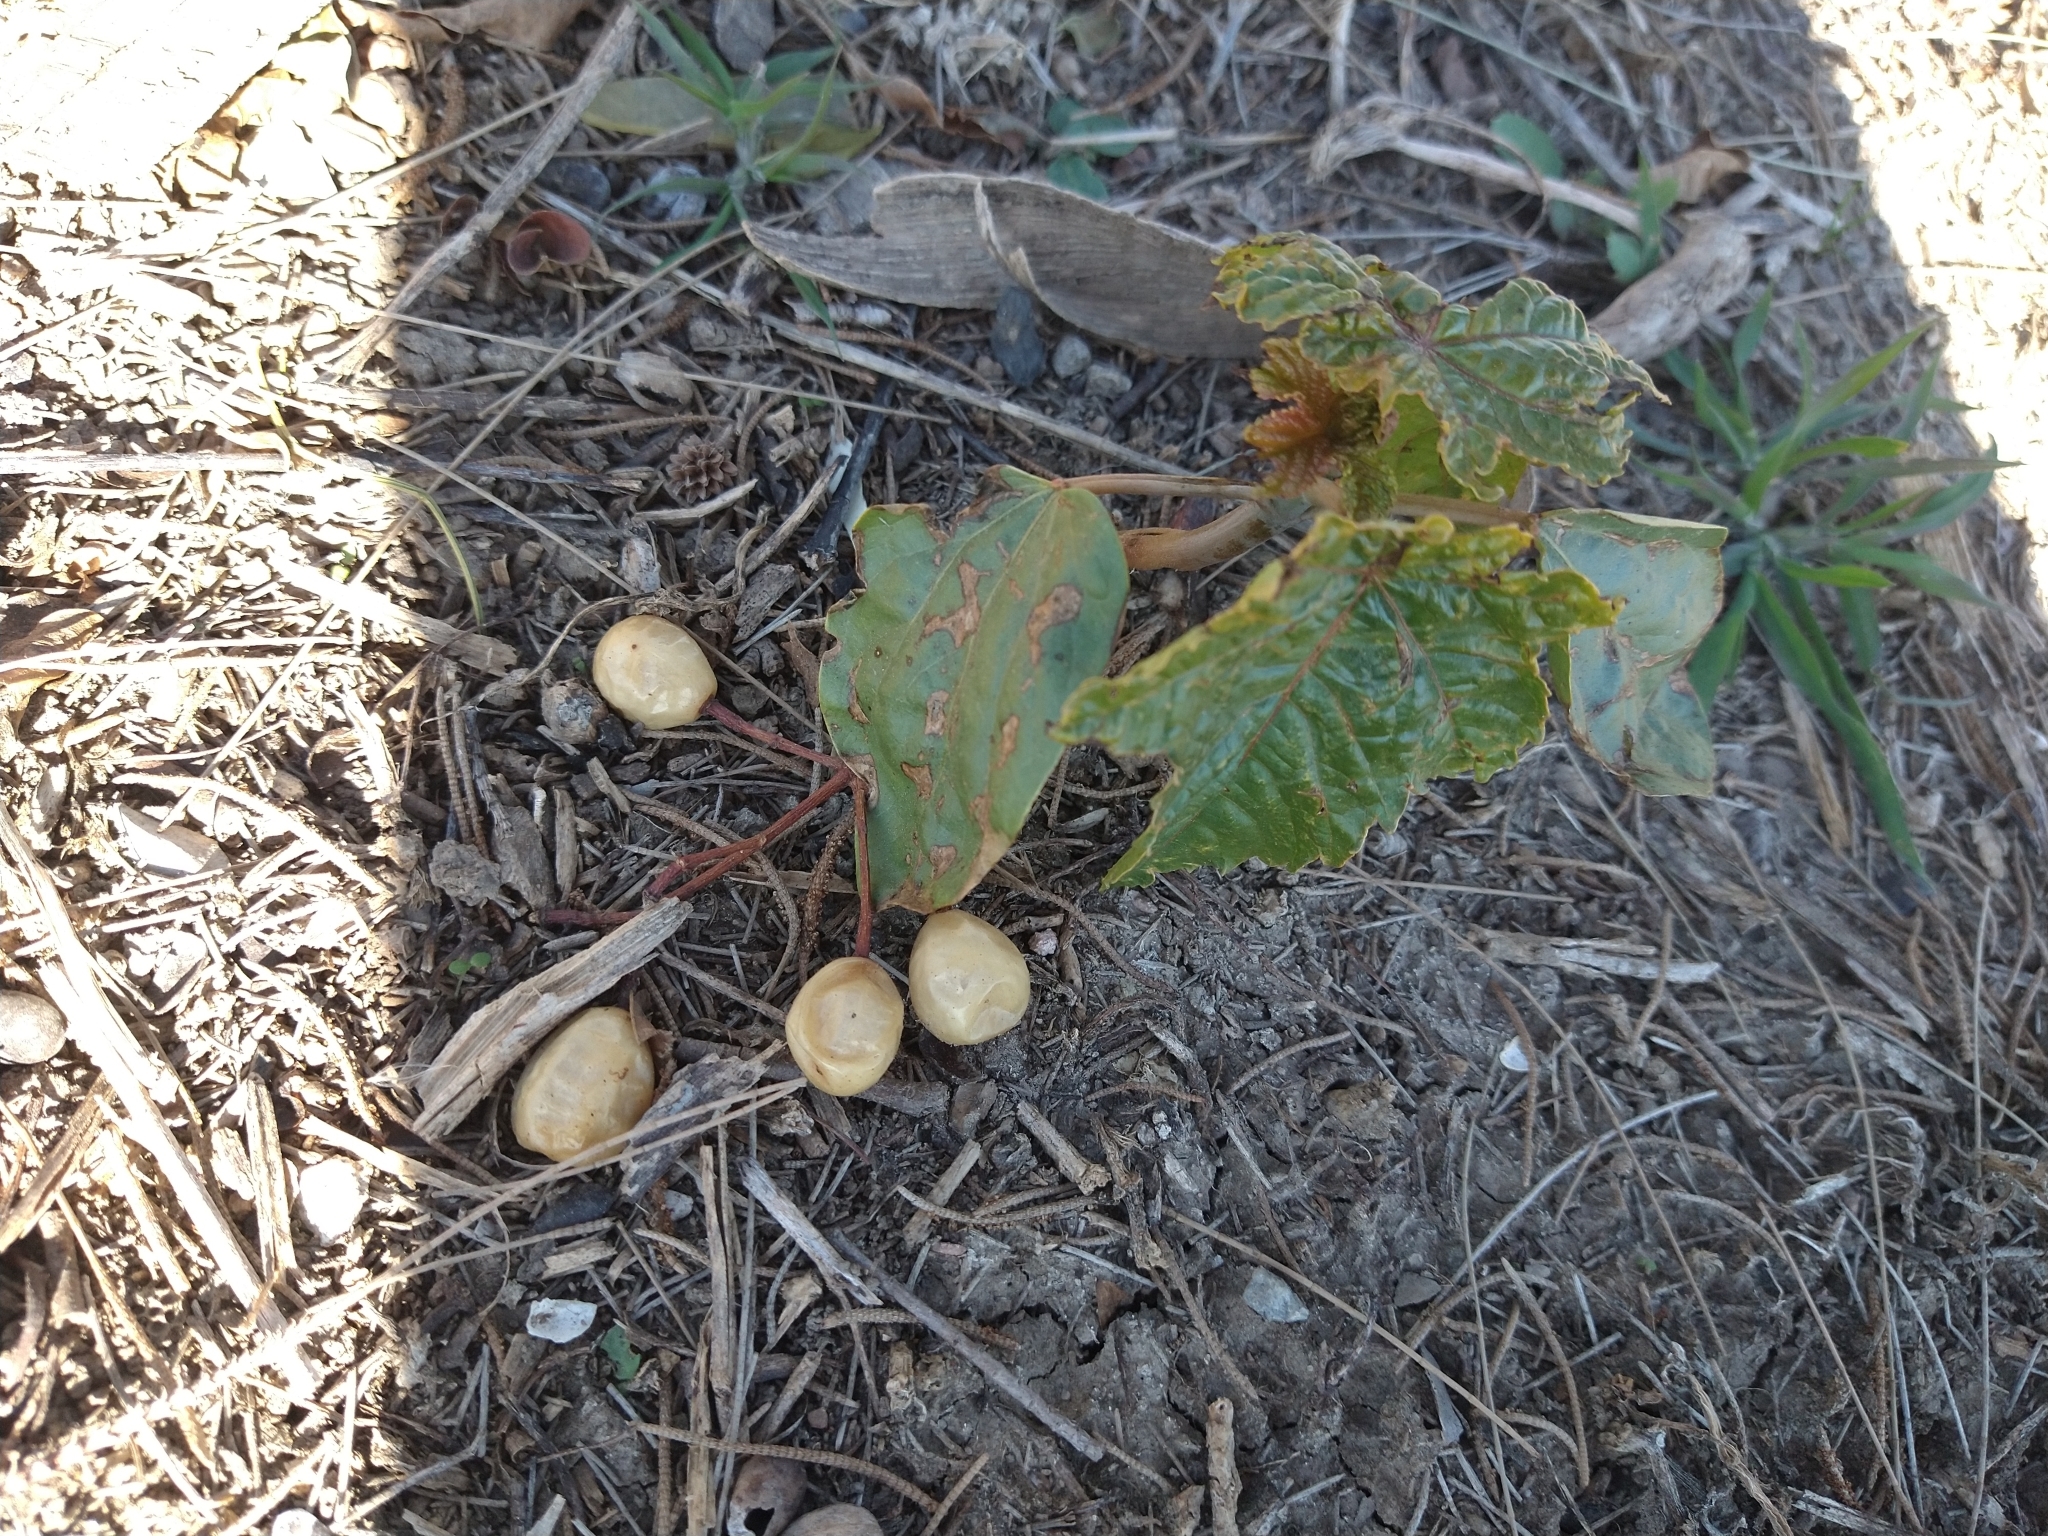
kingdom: Plantae
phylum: Tracheophyta
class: Magnoliopsida
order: Malpighiales
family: Euphorbiaceae
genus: Ricinus
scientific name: Ricinus communis
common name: Castor-oil-plant
